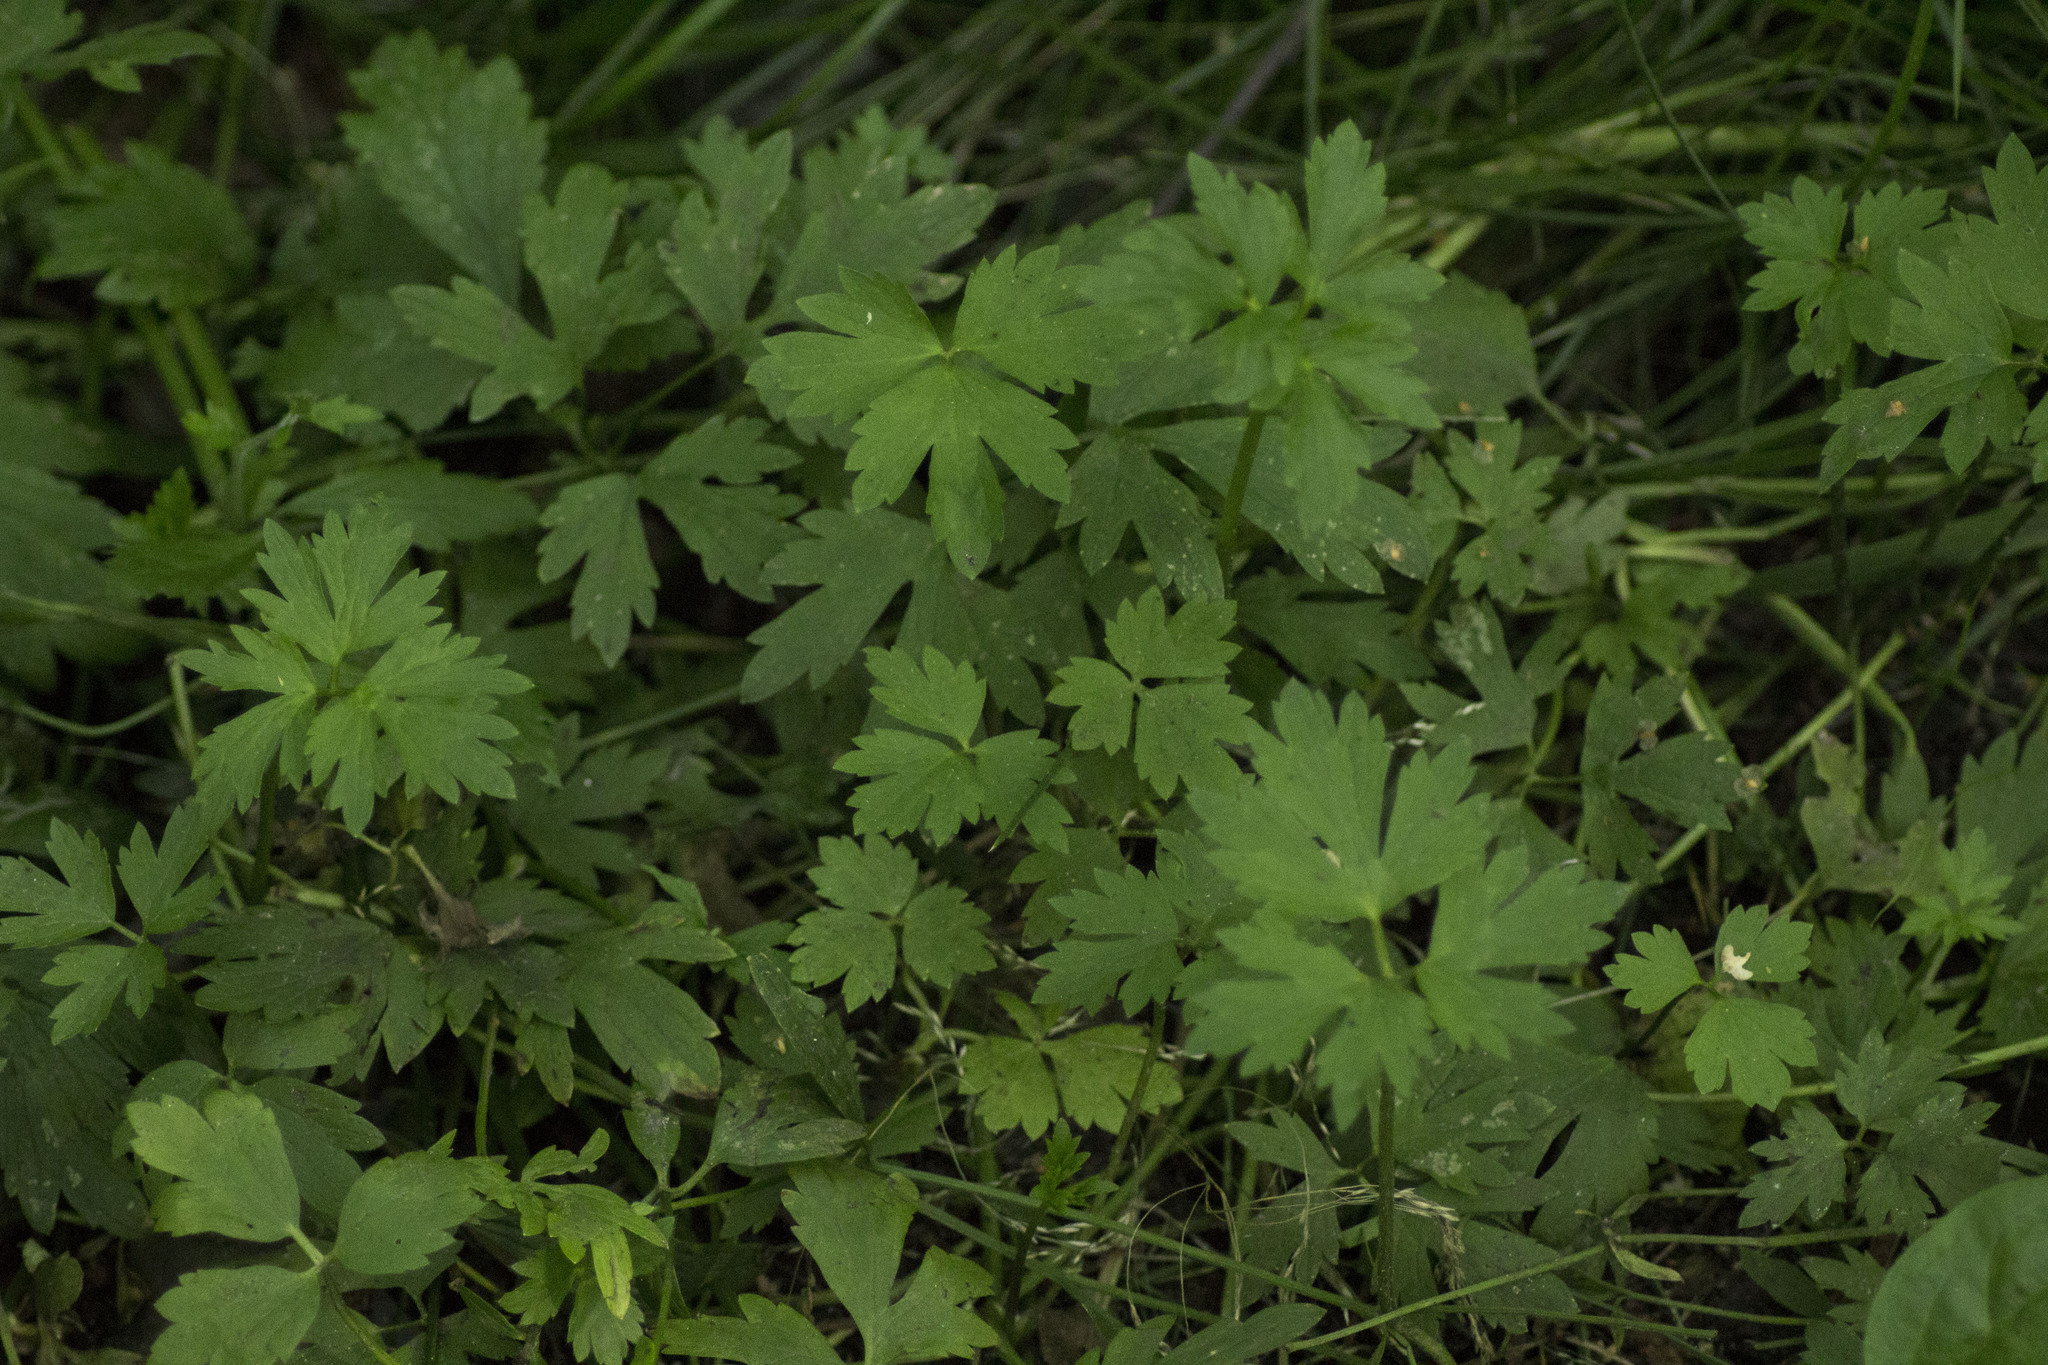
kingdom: Plantae
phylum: Tracheophyta
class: Magnoliopsida
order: Ranunculales
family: Ranunculaceae
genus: Ranunculus
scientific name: Ranunculus repens
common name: Creeping buttercup
